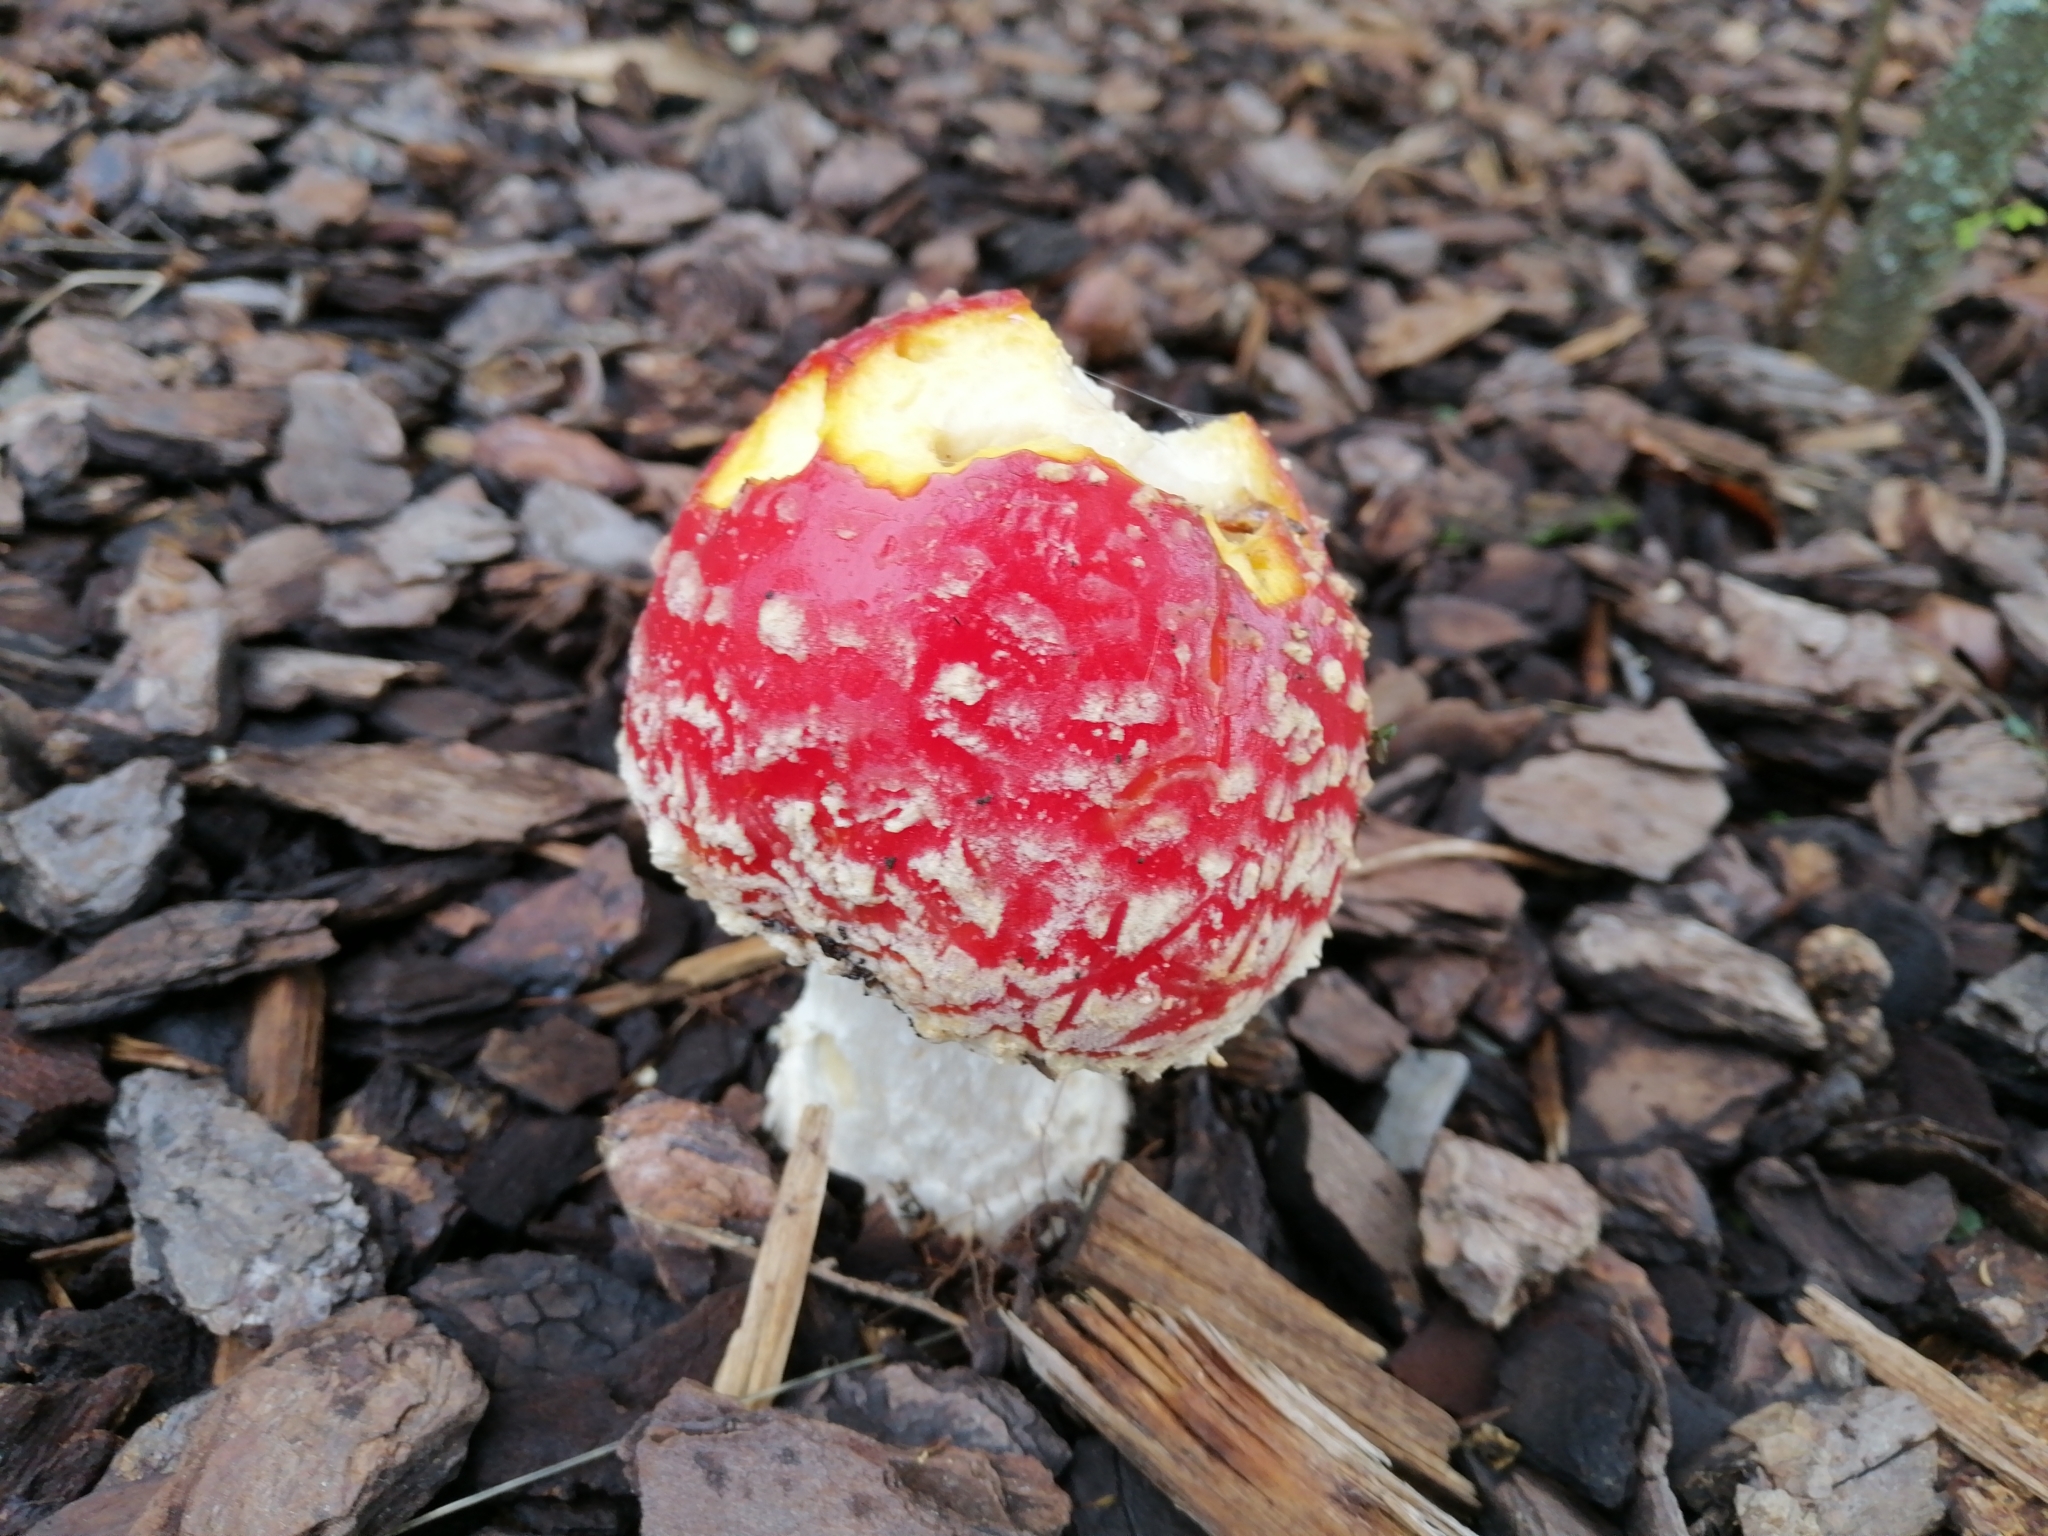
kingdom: Fungi
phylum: Basidiomycota
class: Agaricomycetes
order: Agaricales
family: Amanitaceae
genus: Amanita
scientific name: Amanita muscaria
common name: Fly agaric
